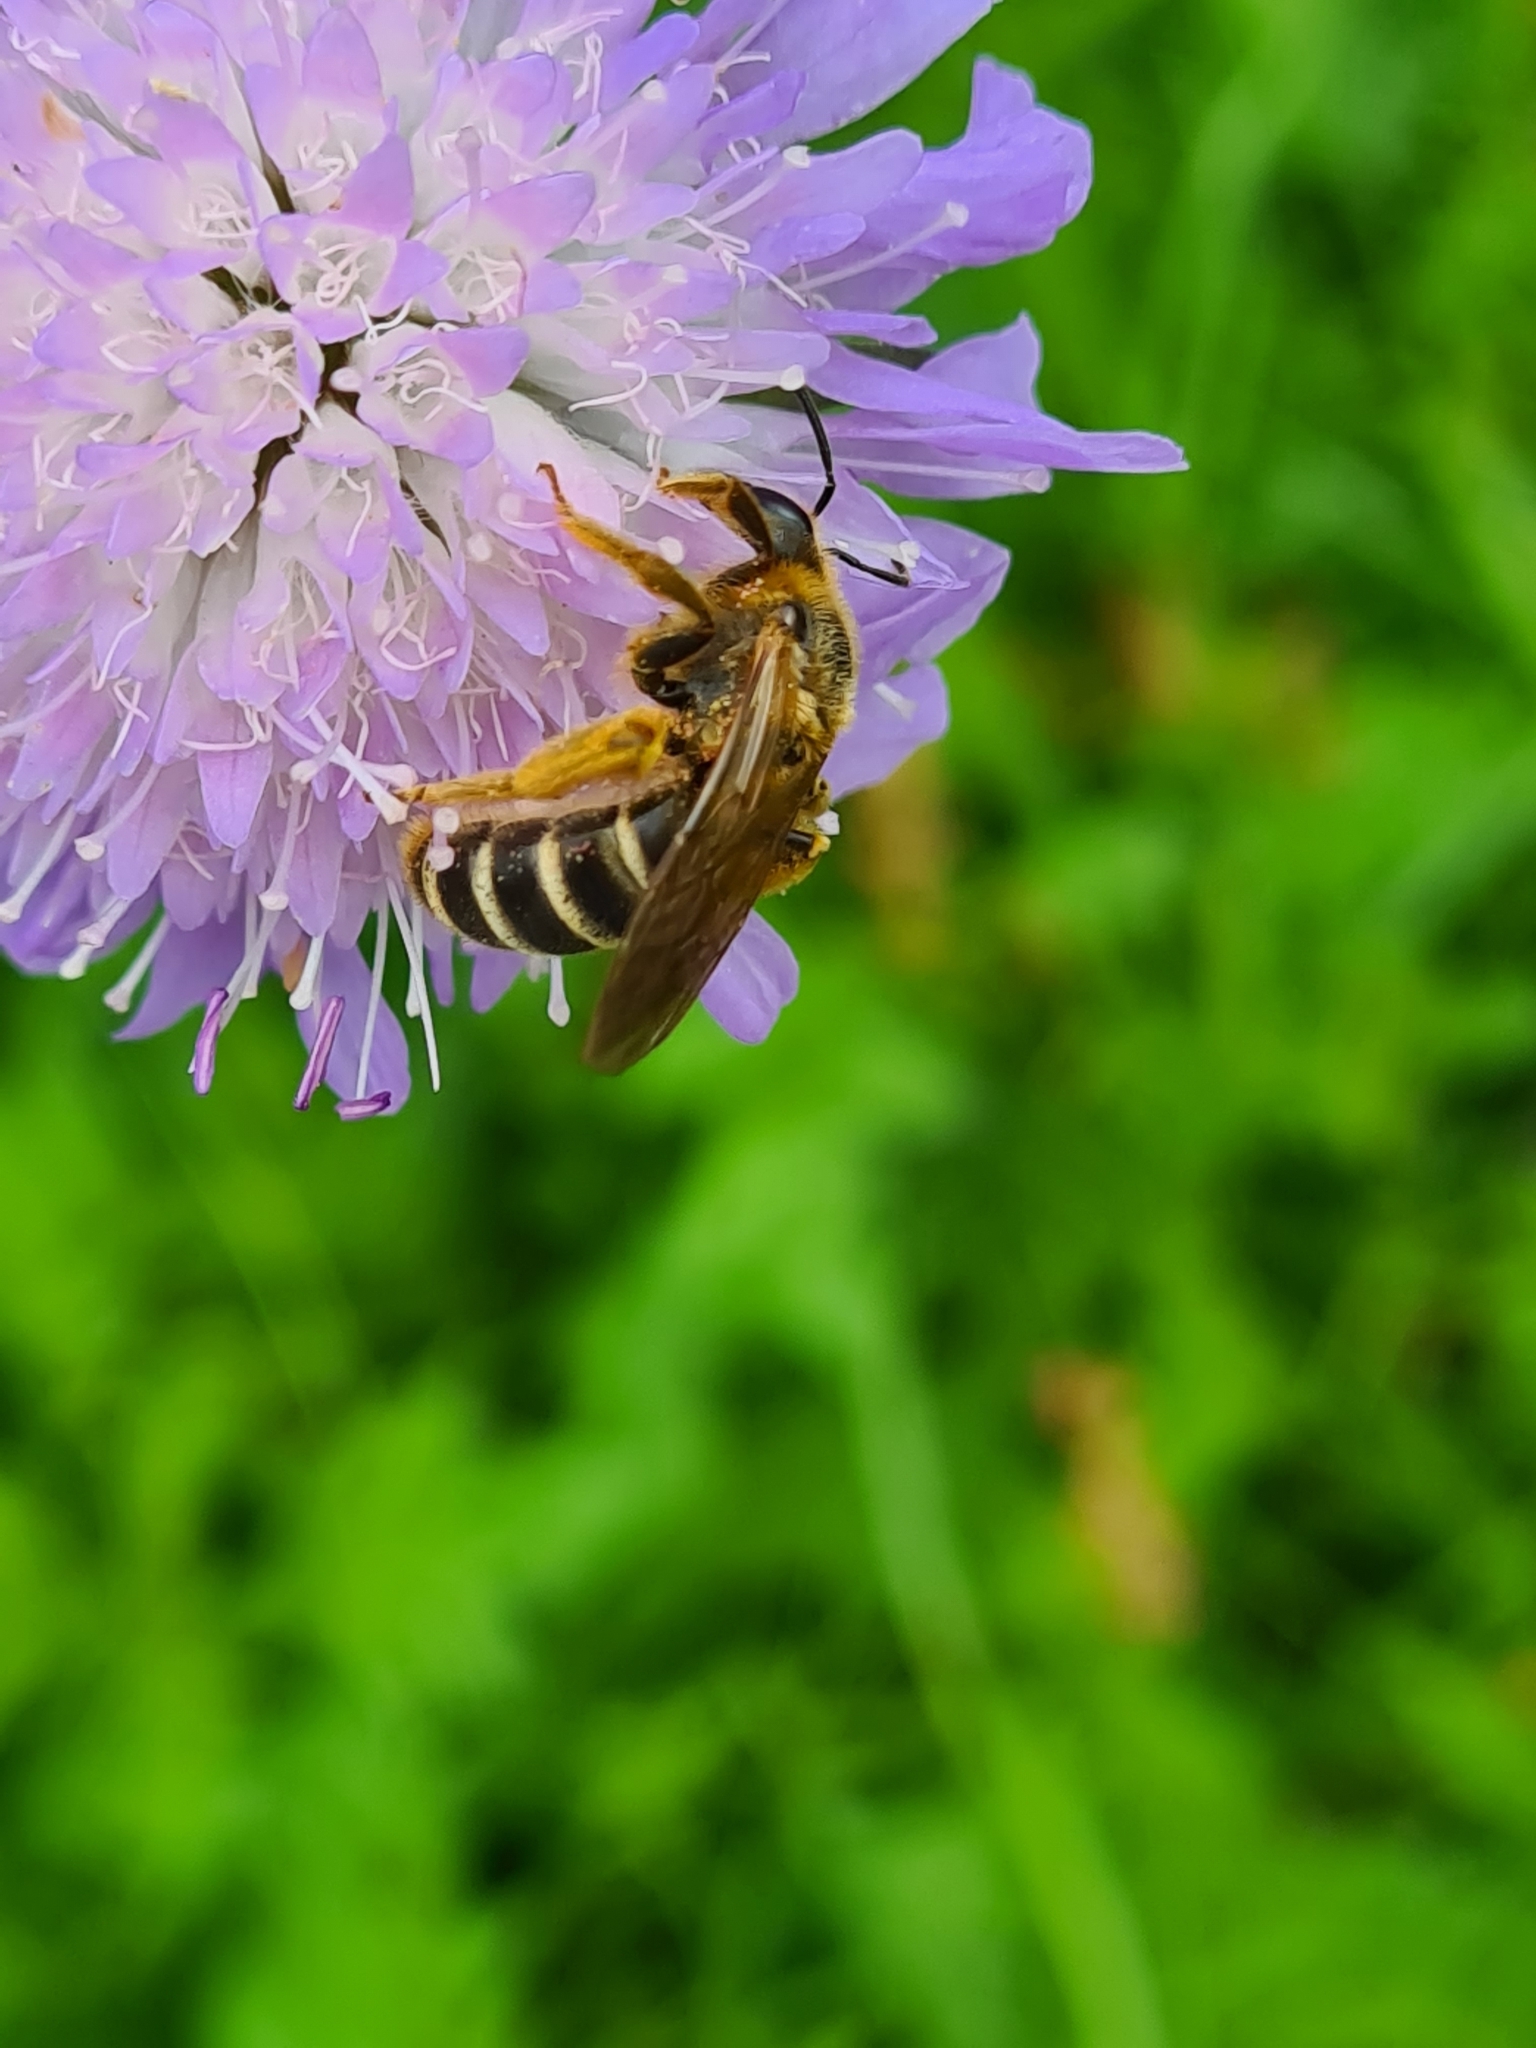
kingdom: Animalia
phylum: Arthropoda
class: Insecta
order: Hymenoptera
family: Halictidae
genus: Halictus
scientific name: Halictus quadricinctus
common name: Giant furrow bee
